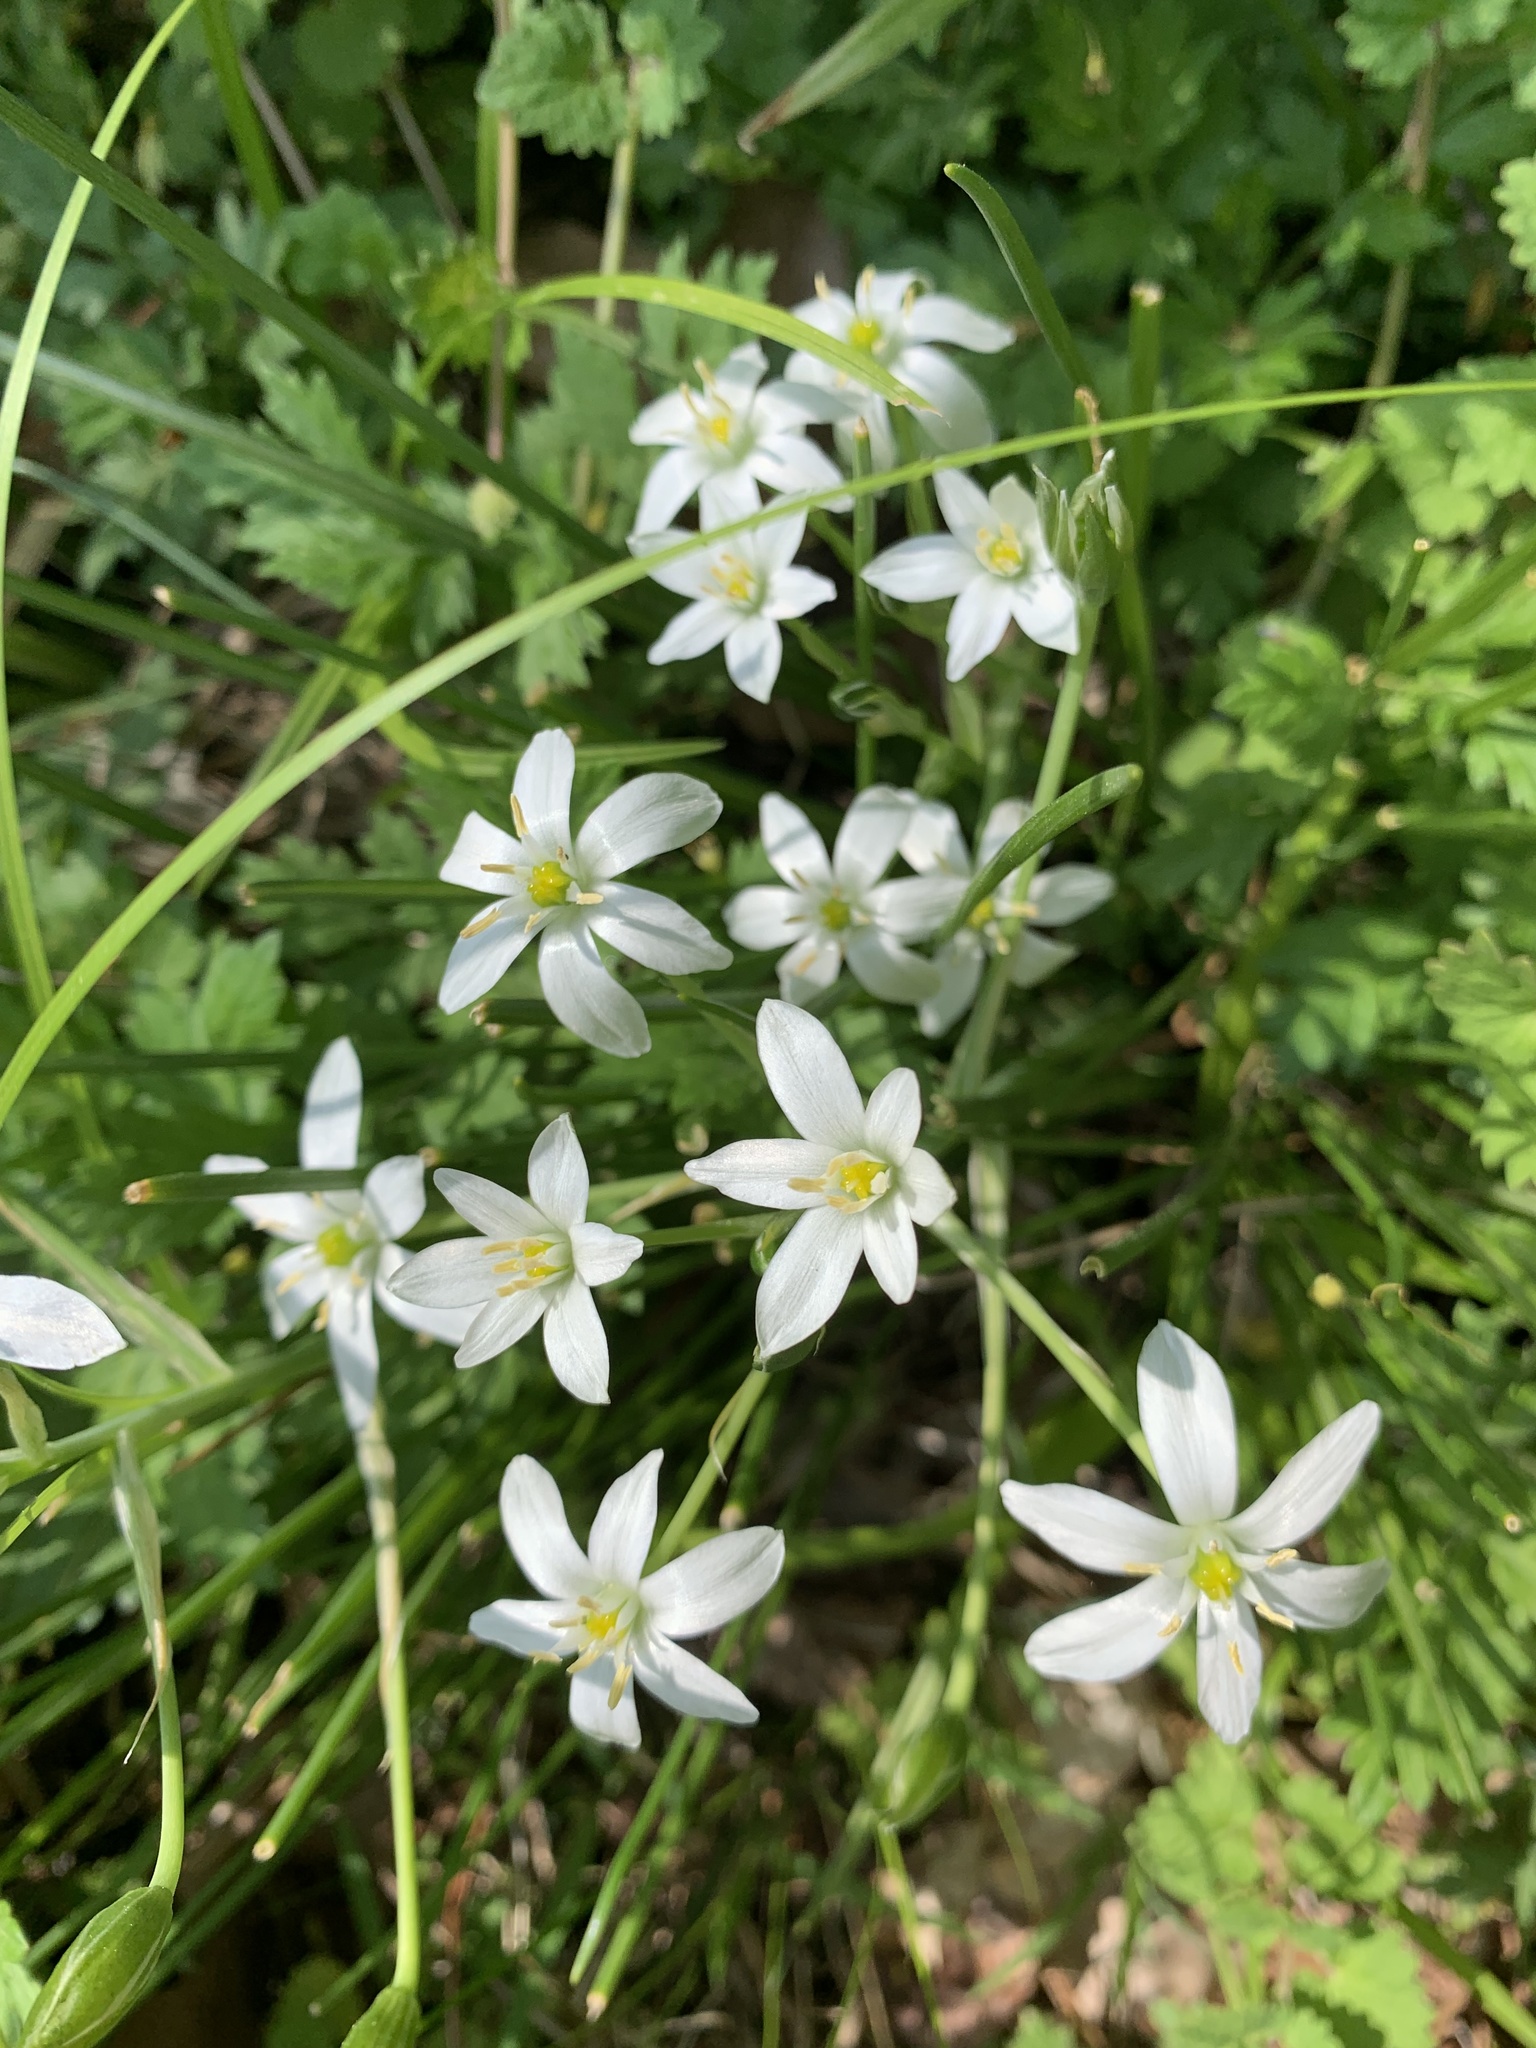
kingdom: Plantae
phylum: Tracheophyta
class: Liliopsida
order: Asparagales
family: Asparagaceae
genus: Ornithogalum
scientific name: Ornithogalum umbellatum
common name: Garden star-of-bethlehem
